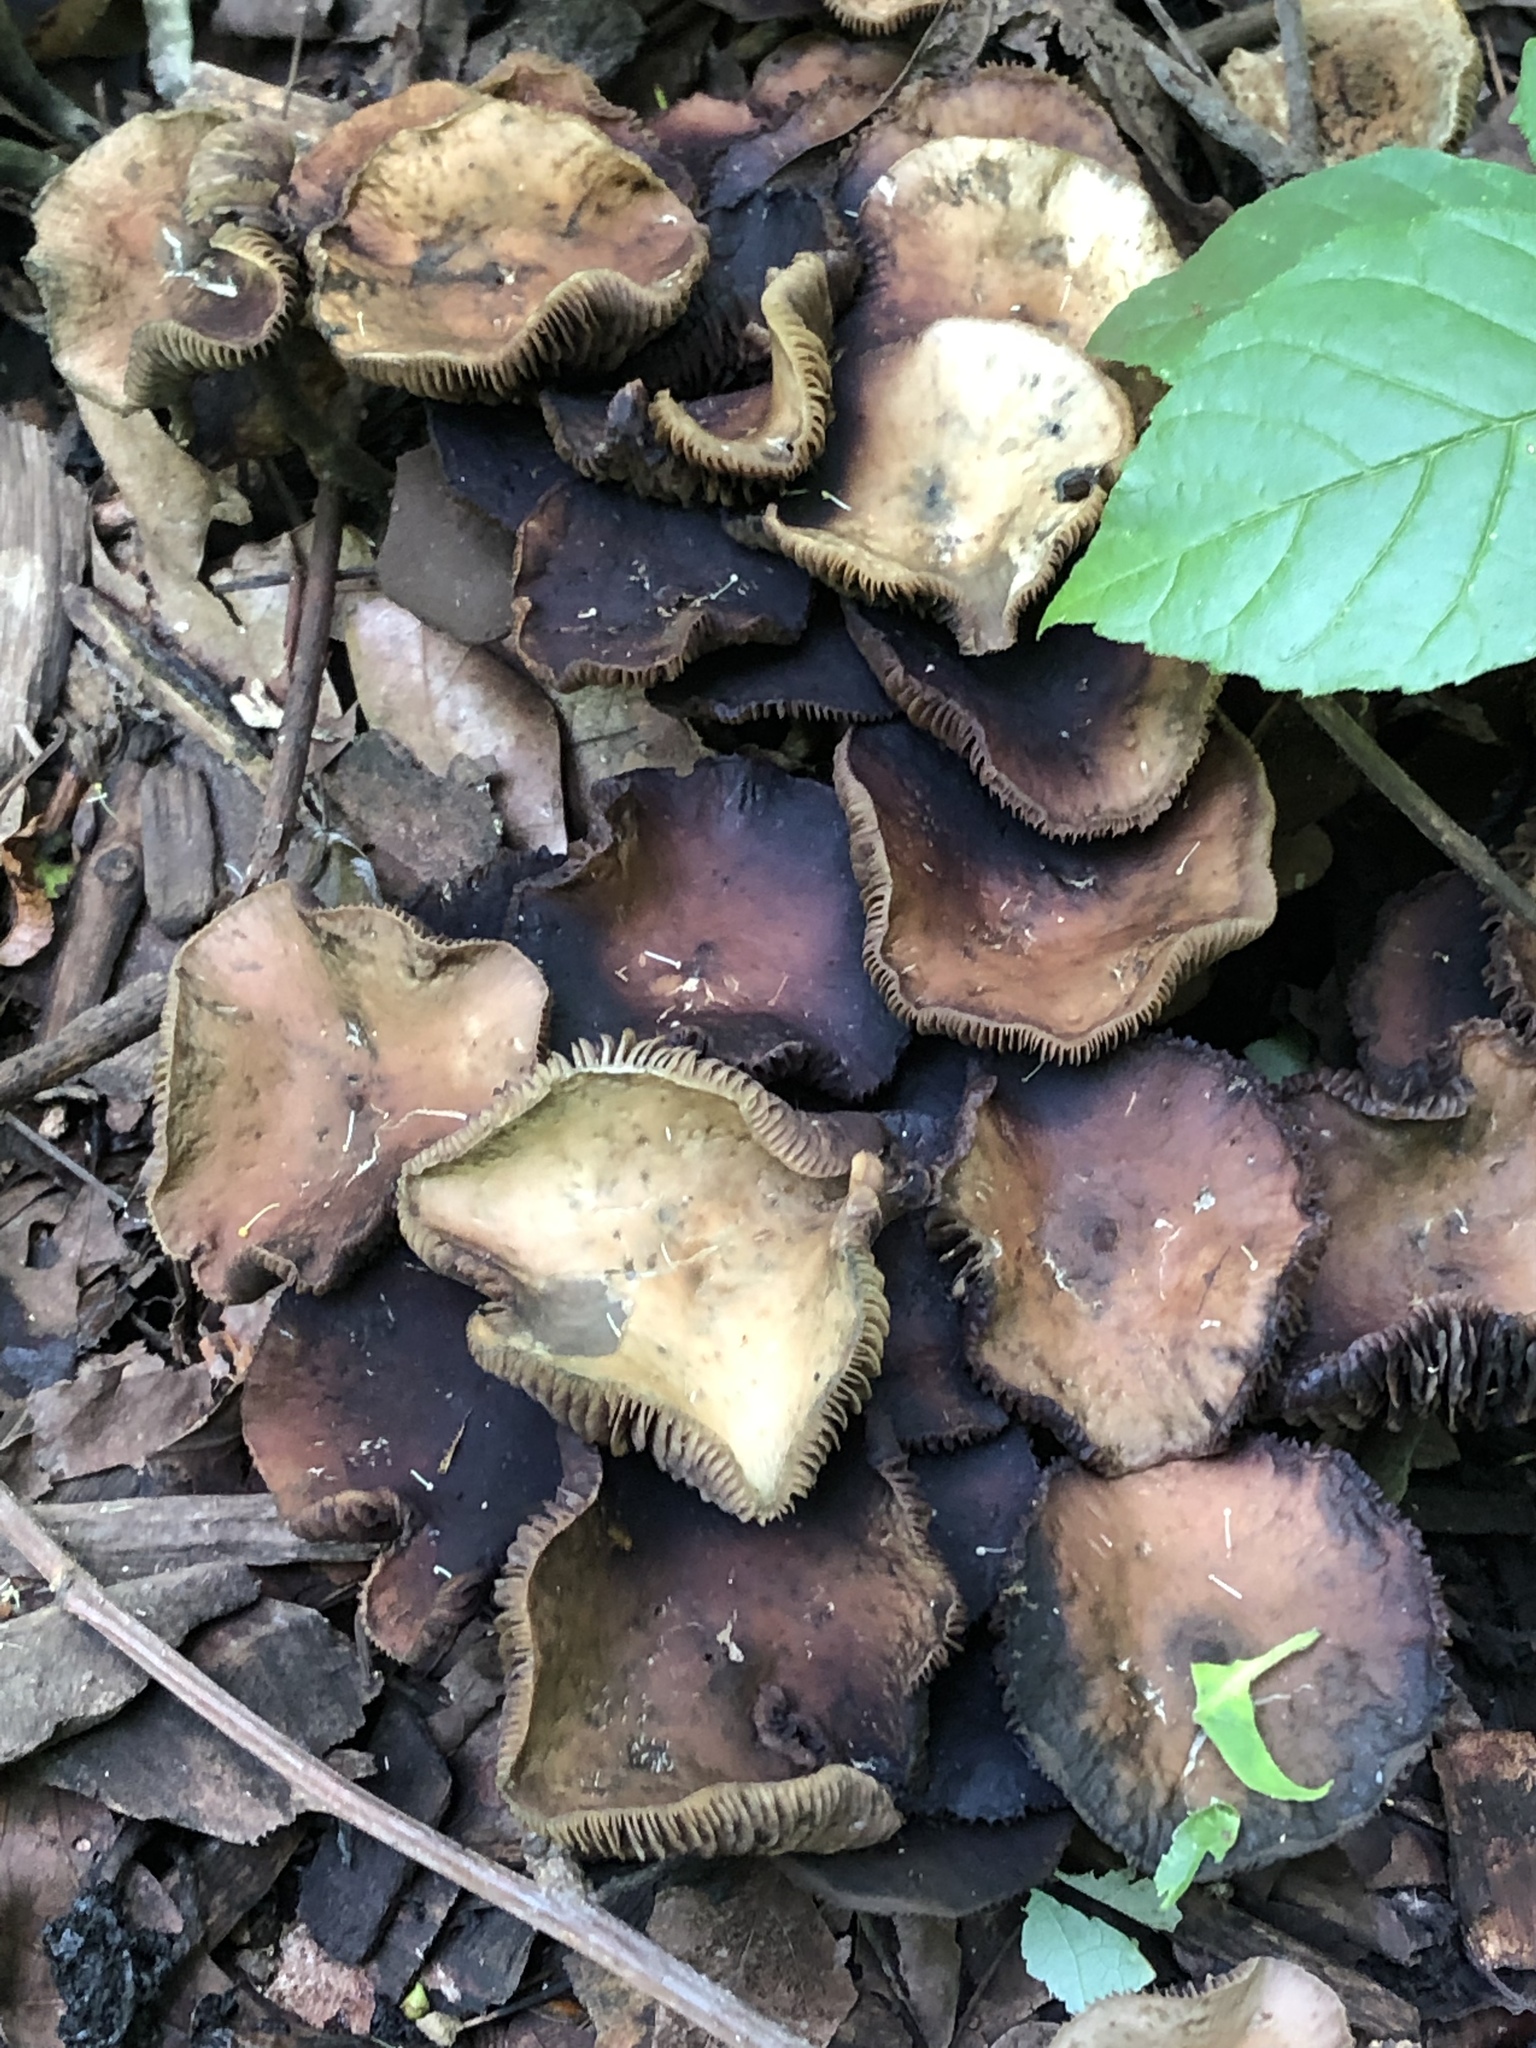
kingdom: Fungi
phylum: Basidiomycota
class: Agaricomycetes
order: Agaricales
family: Hymenogastraceae
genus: Psilocybe
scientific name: Psilocybe ovoideocystidiata
